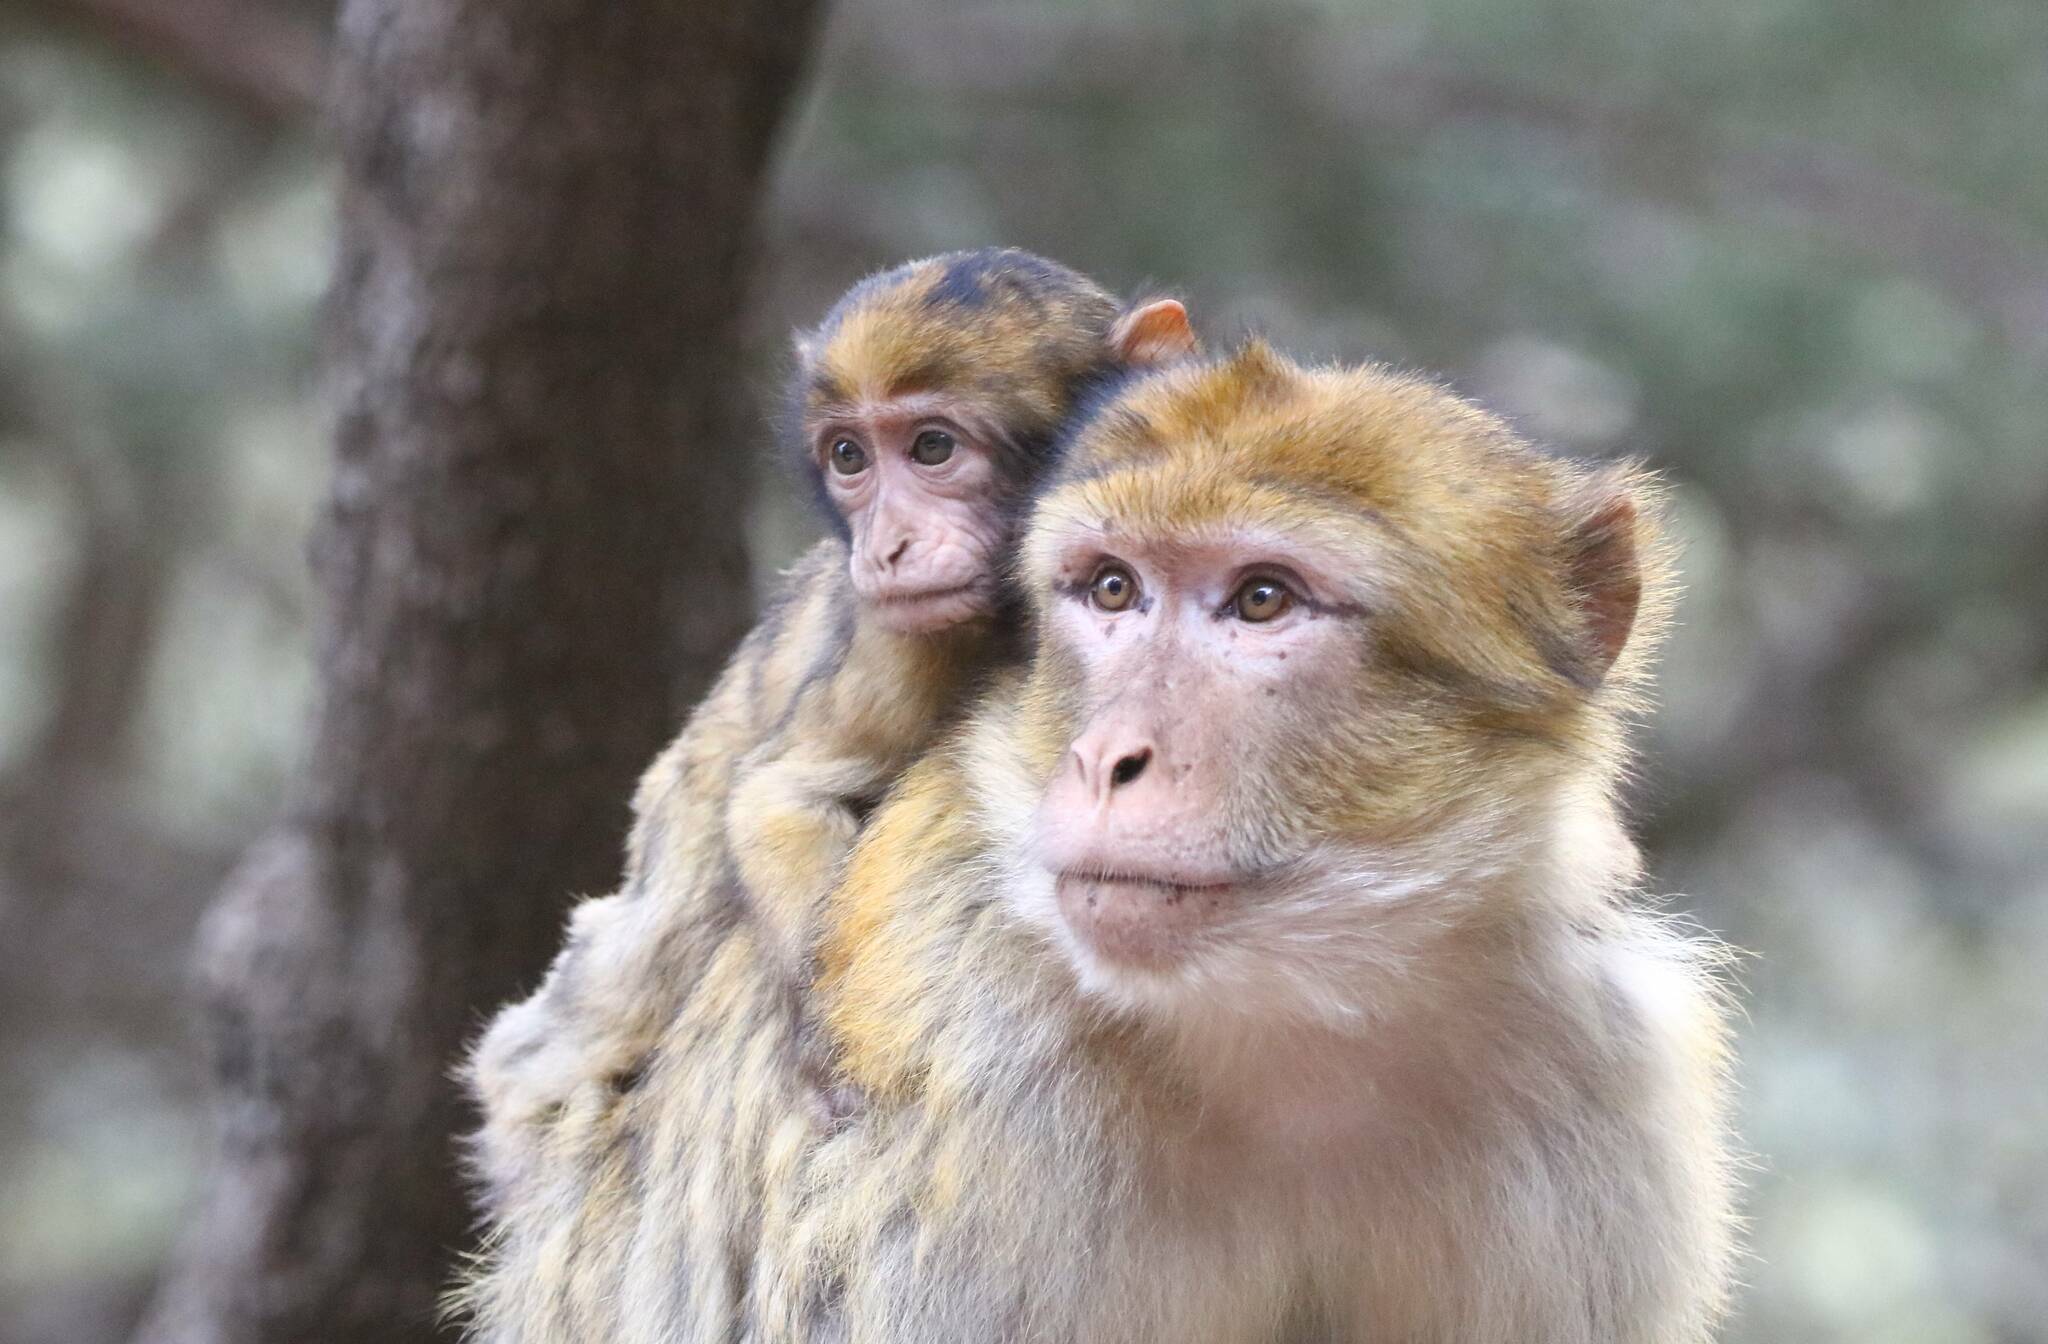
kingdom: Animalia
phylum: Chordata
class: Mammalia
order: Primates
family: Cercopithecidae
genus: Macaca
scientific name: Macaca sylvanus
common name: Barbary macaque
